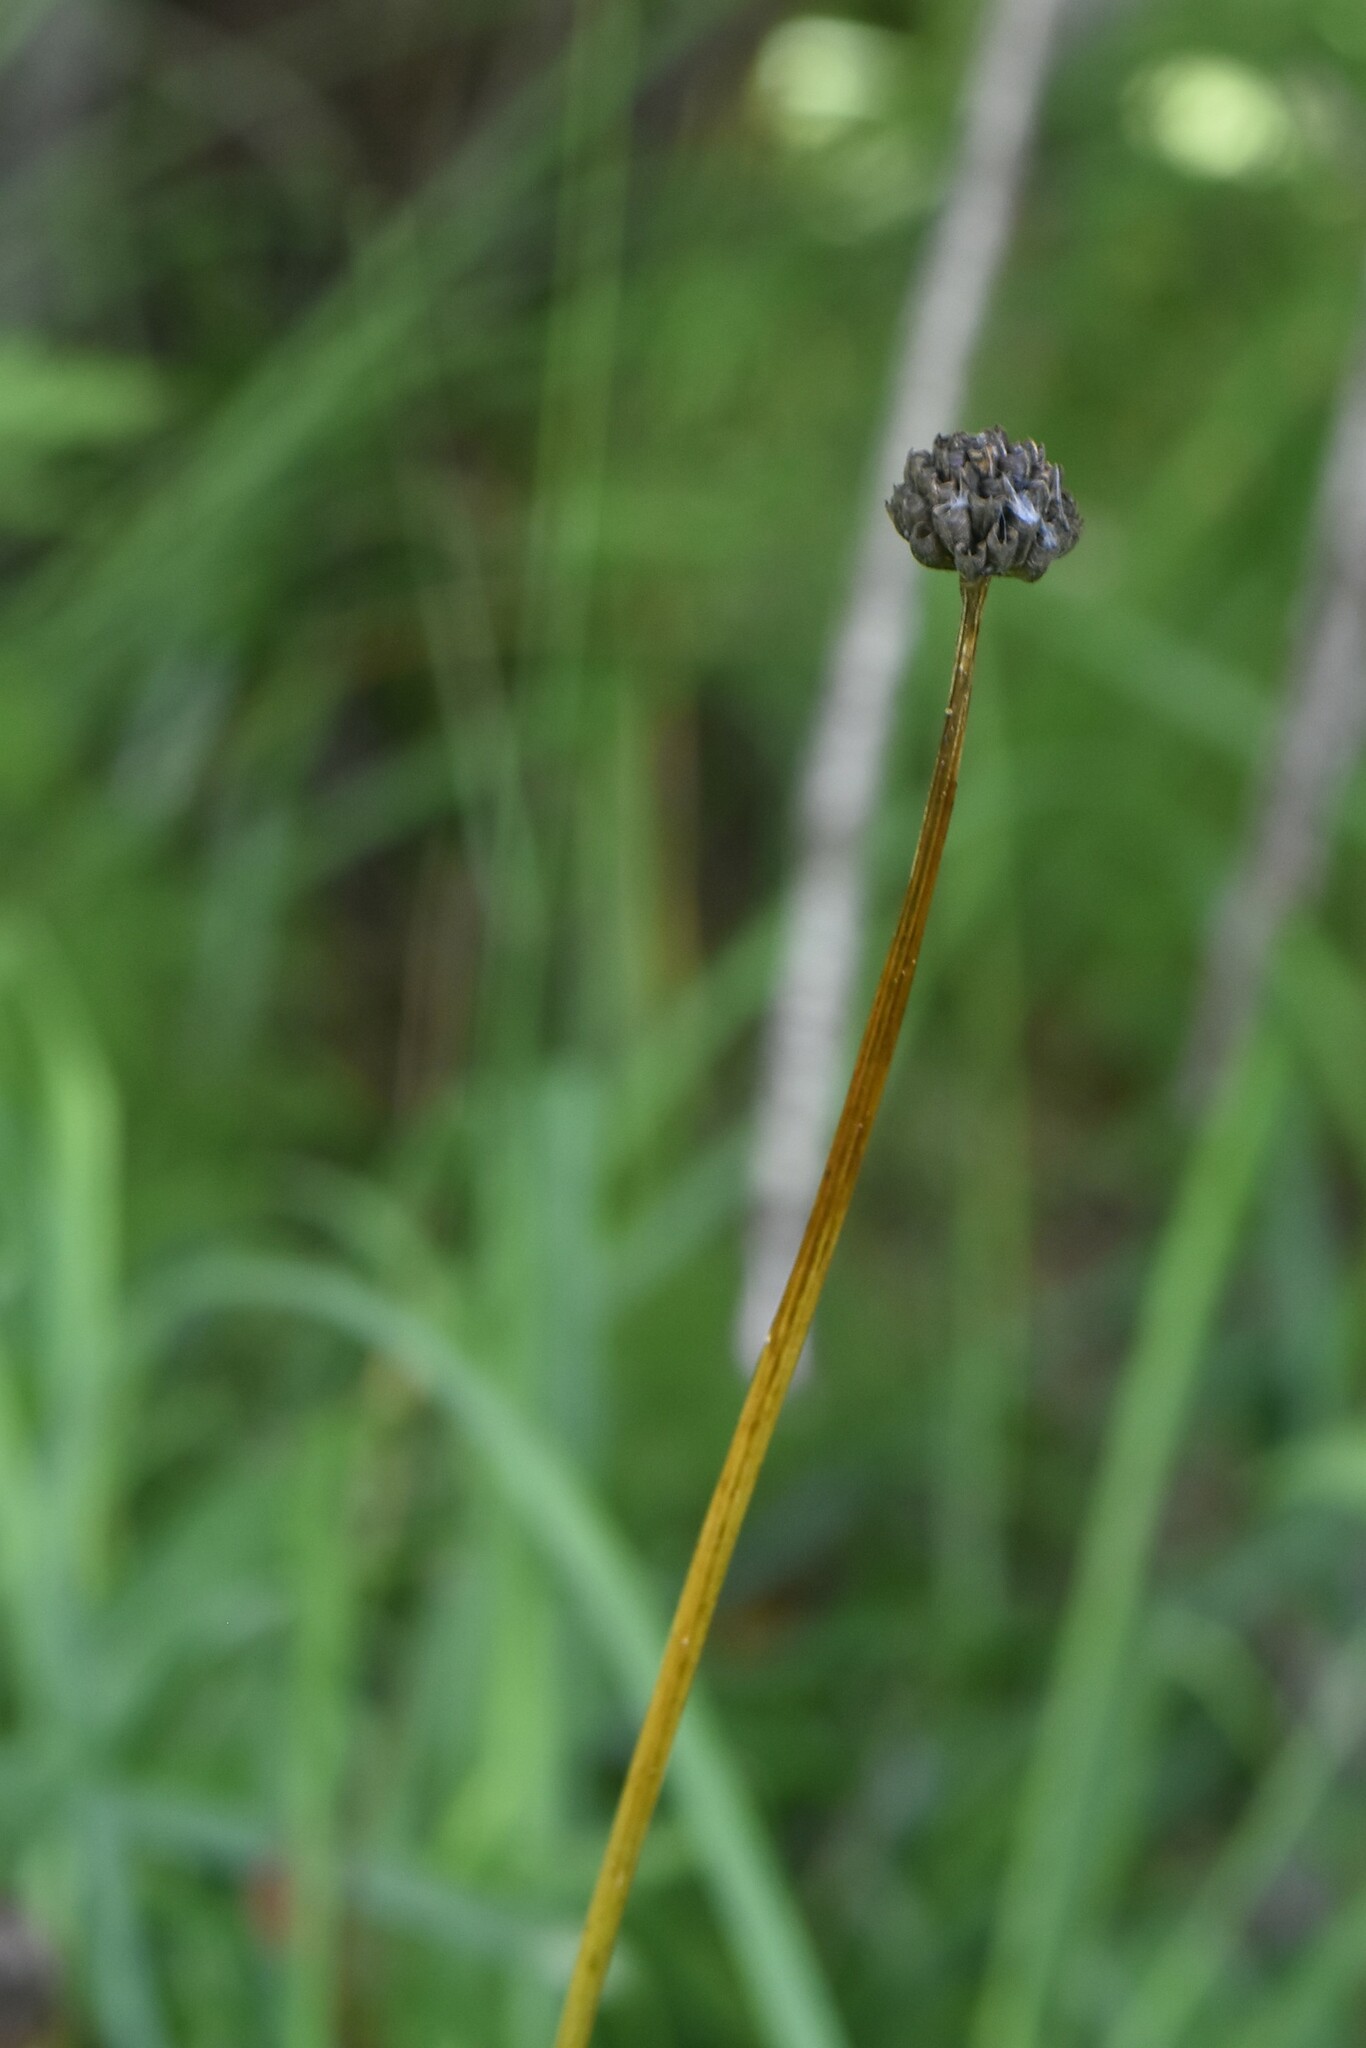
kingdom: Plantae
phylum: Tracheophyta
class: Magnoliopsida
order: Ranunculales
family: Ranunculaceae
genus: Trollius
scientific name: Trollius europaeus
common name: European globeflower
